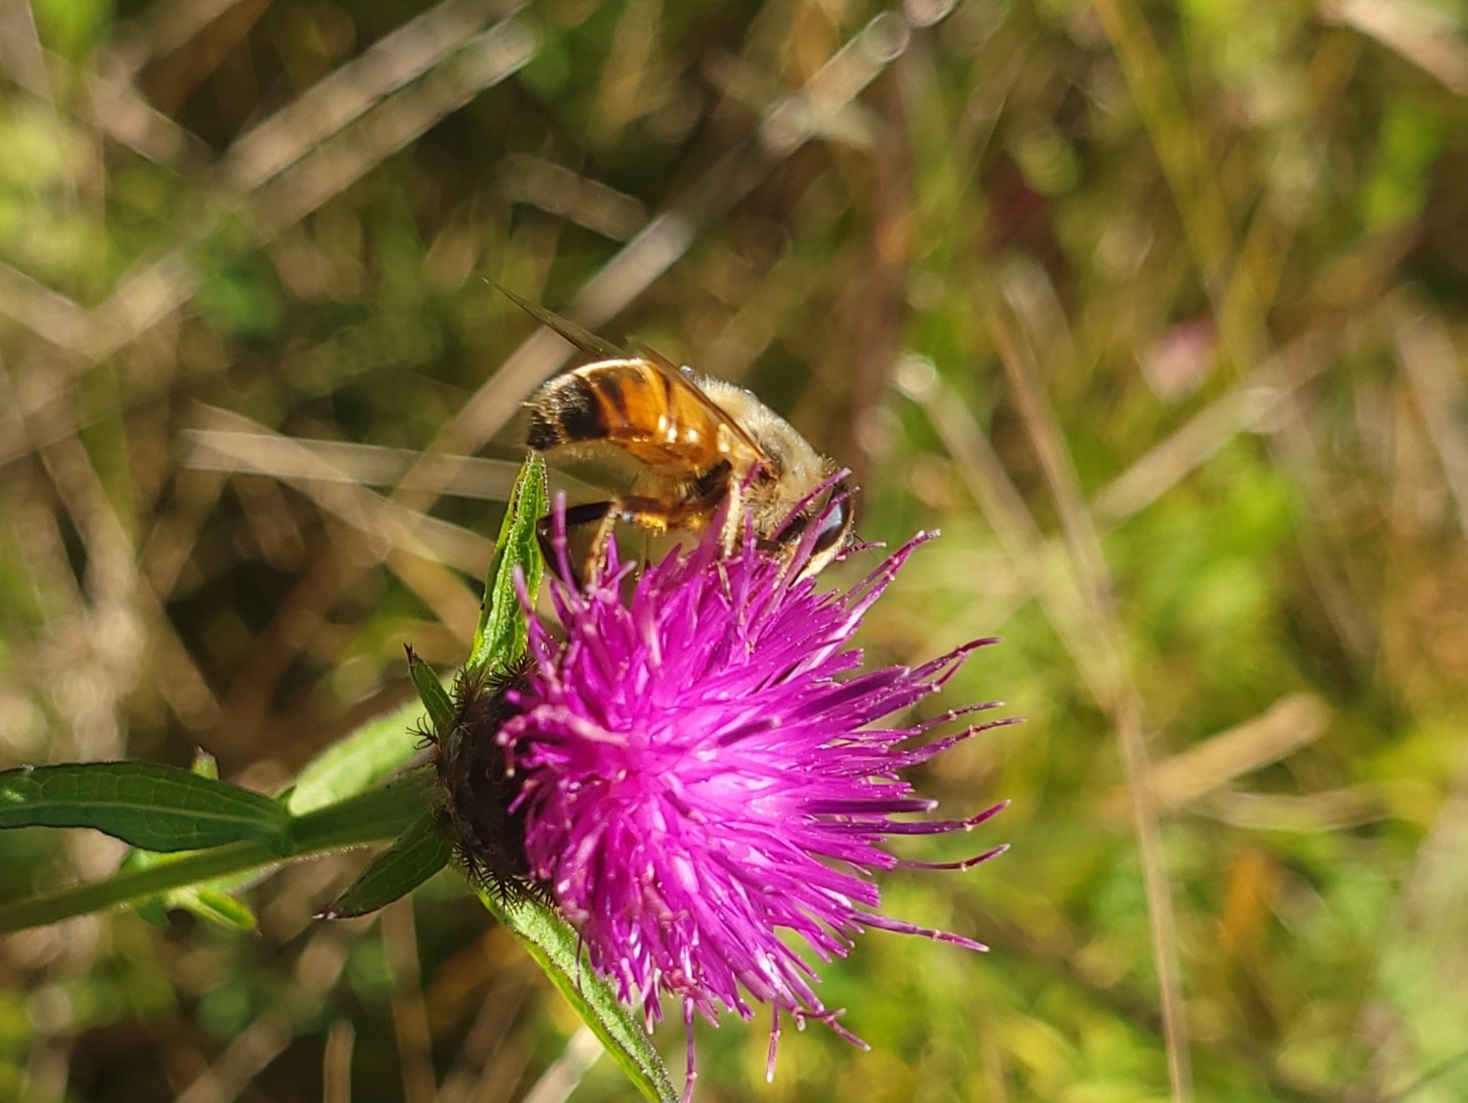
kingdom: Animalia
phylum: Arthropoda
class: Insecta
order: Diptera
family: Syrphidae
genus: Eristalis
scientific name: Eristalis tenax
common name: Drone fly
